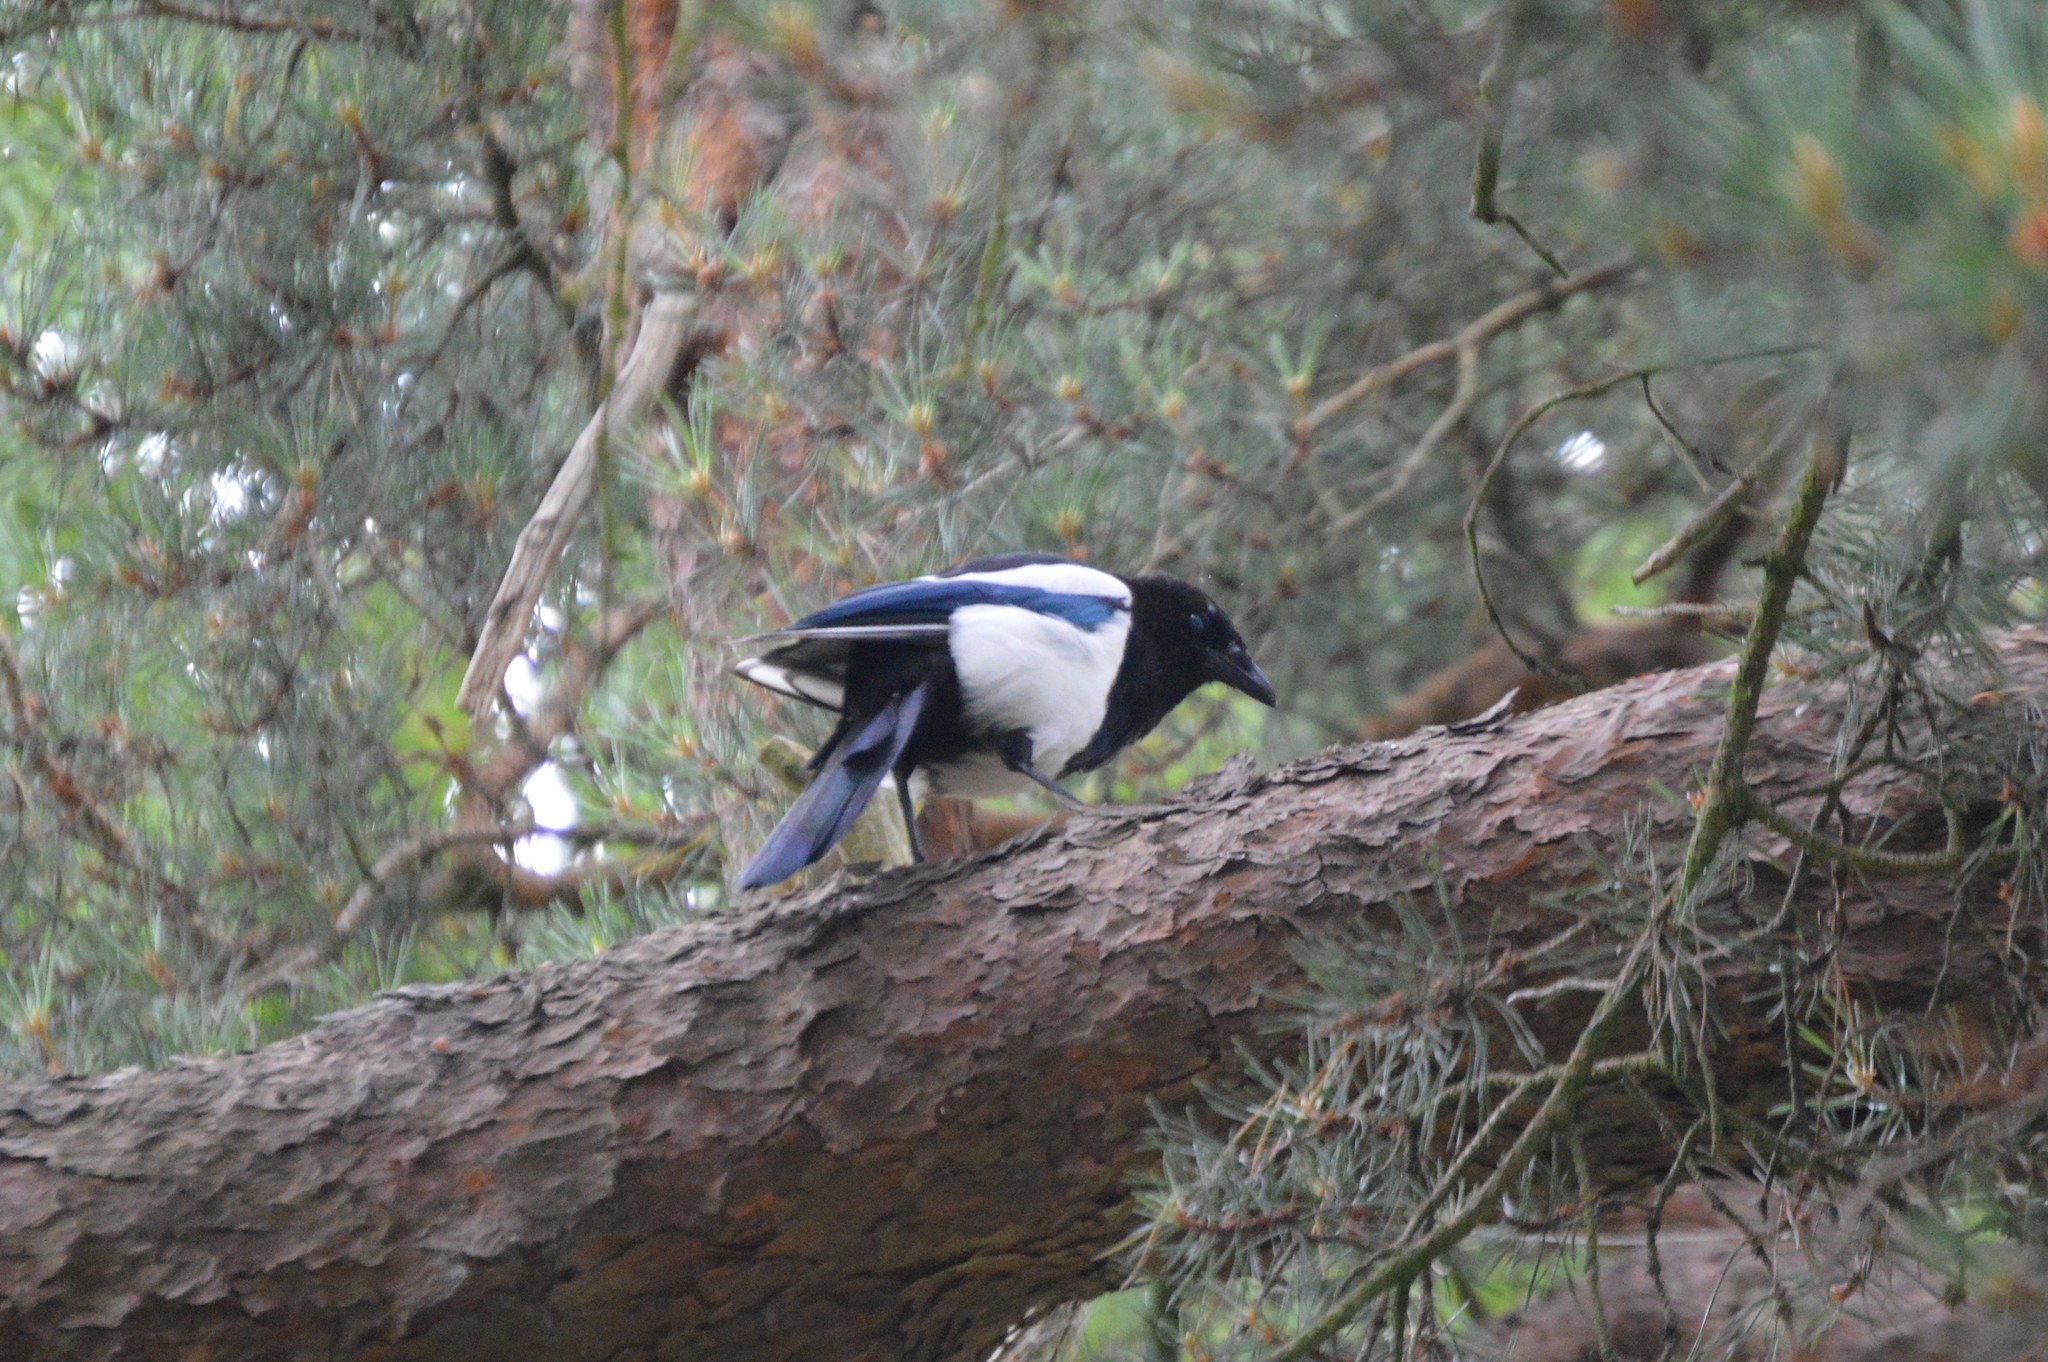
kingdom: Animalia
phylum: Chordata
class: Aves
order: Passeriformes
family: Corvidae
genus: Pica
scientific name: Pica pica
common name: Eurasian magpie
